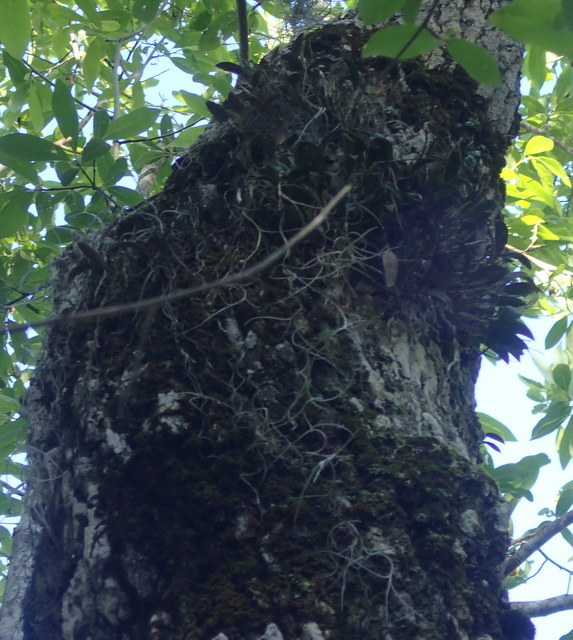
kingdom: Plantae
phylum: Tracheophyta
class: Liliopsida
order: Asparagales
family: Orchidaceae
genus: Epidendrum
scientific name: Epidendrum conopseum
